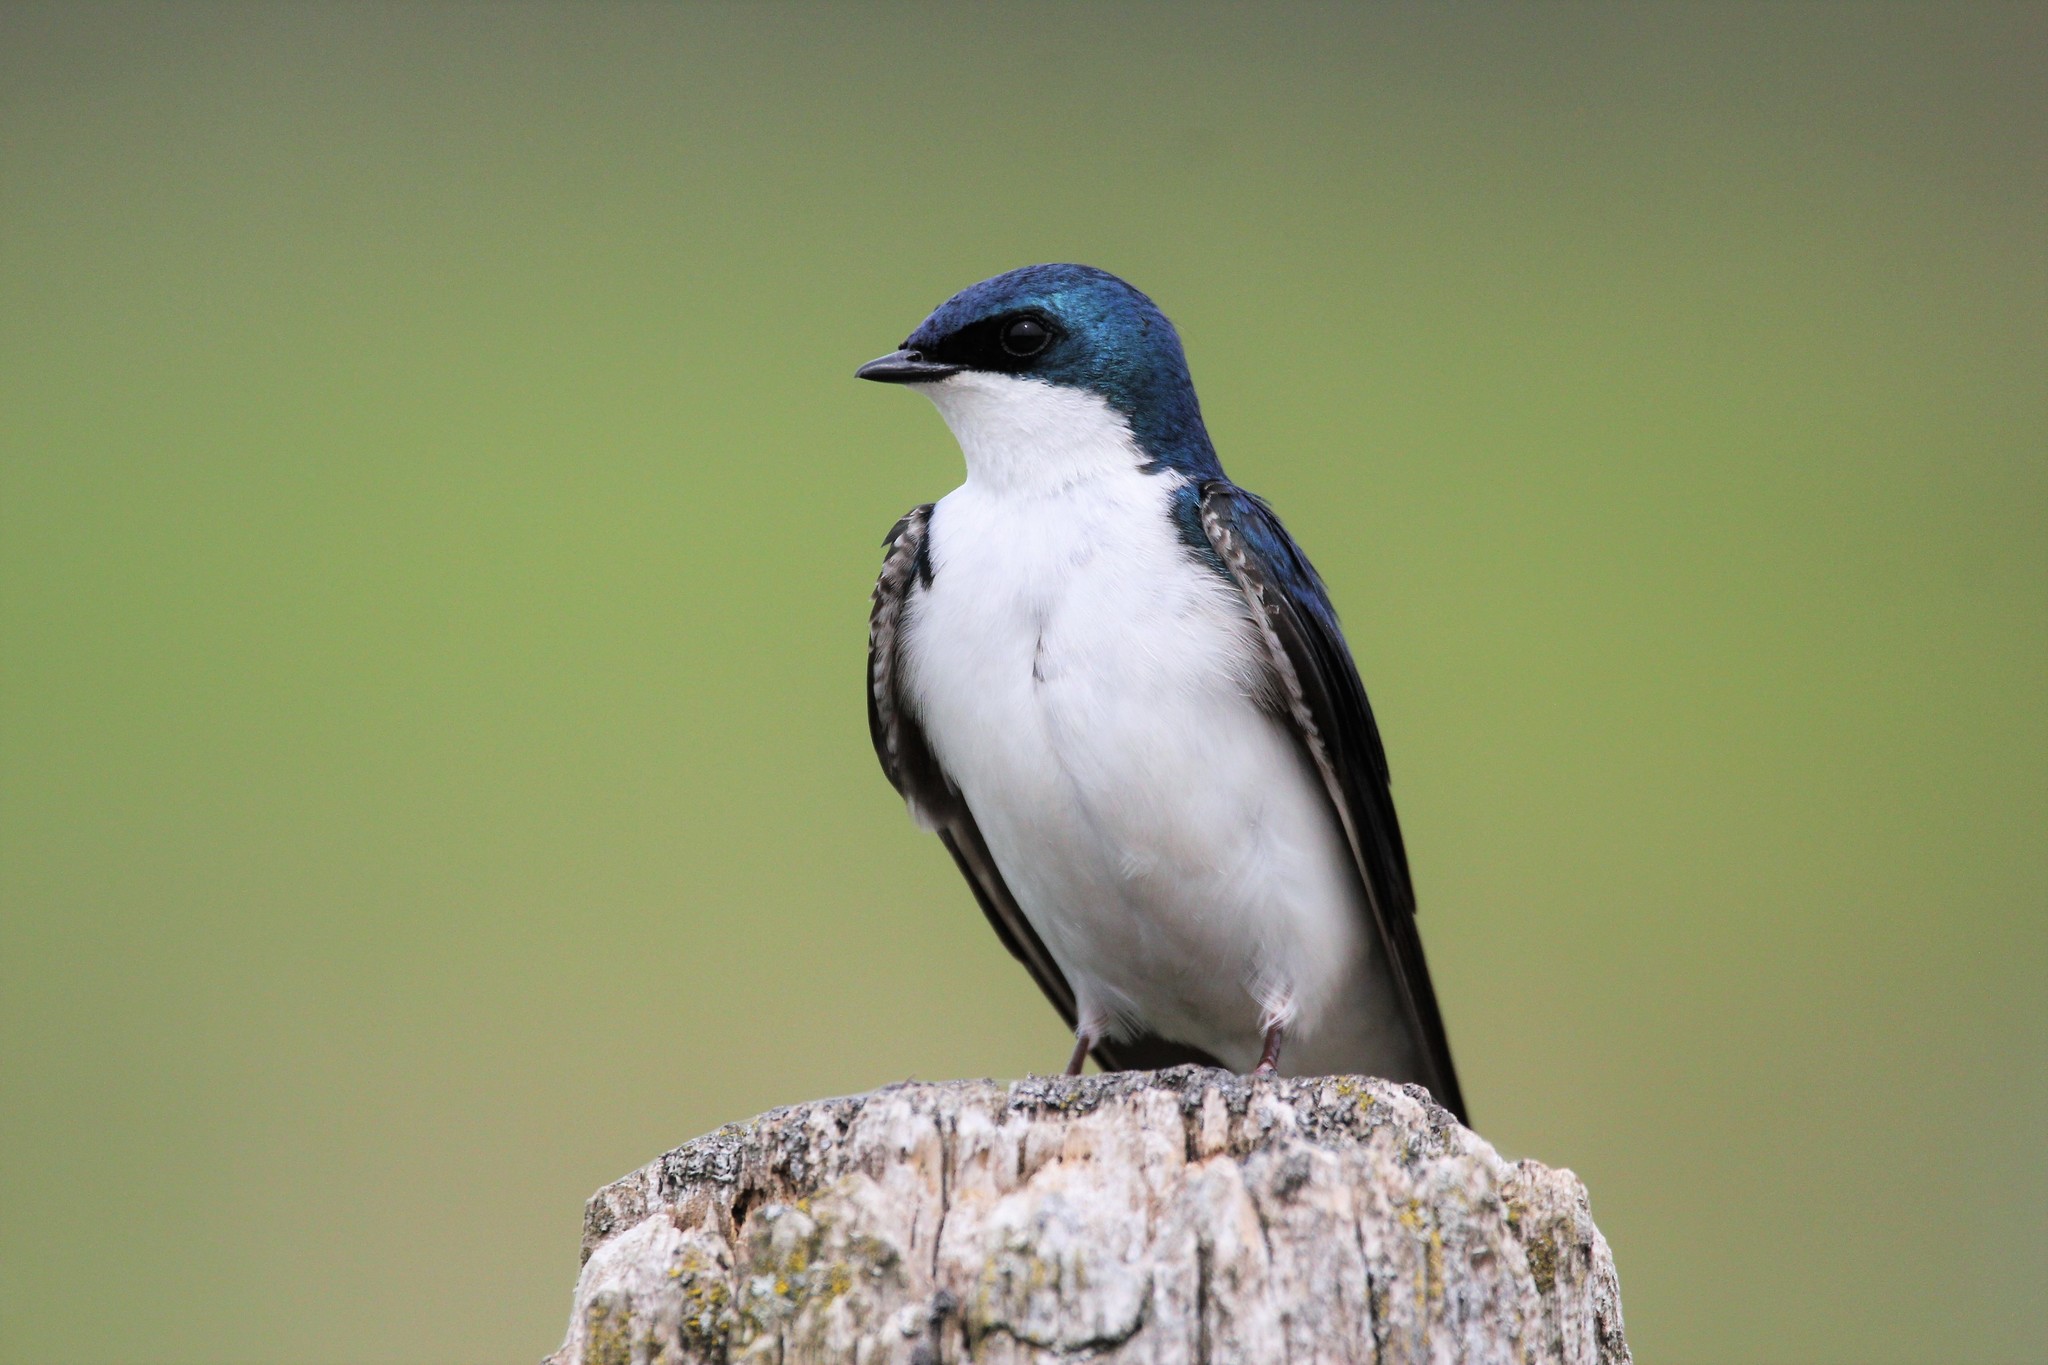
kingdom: Animalia
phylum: Chordata
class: Aves
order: Passeriformes
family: Hirundinidae
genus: Tachycineta
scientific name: Tachycineta bicolor
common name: Tree swallow
